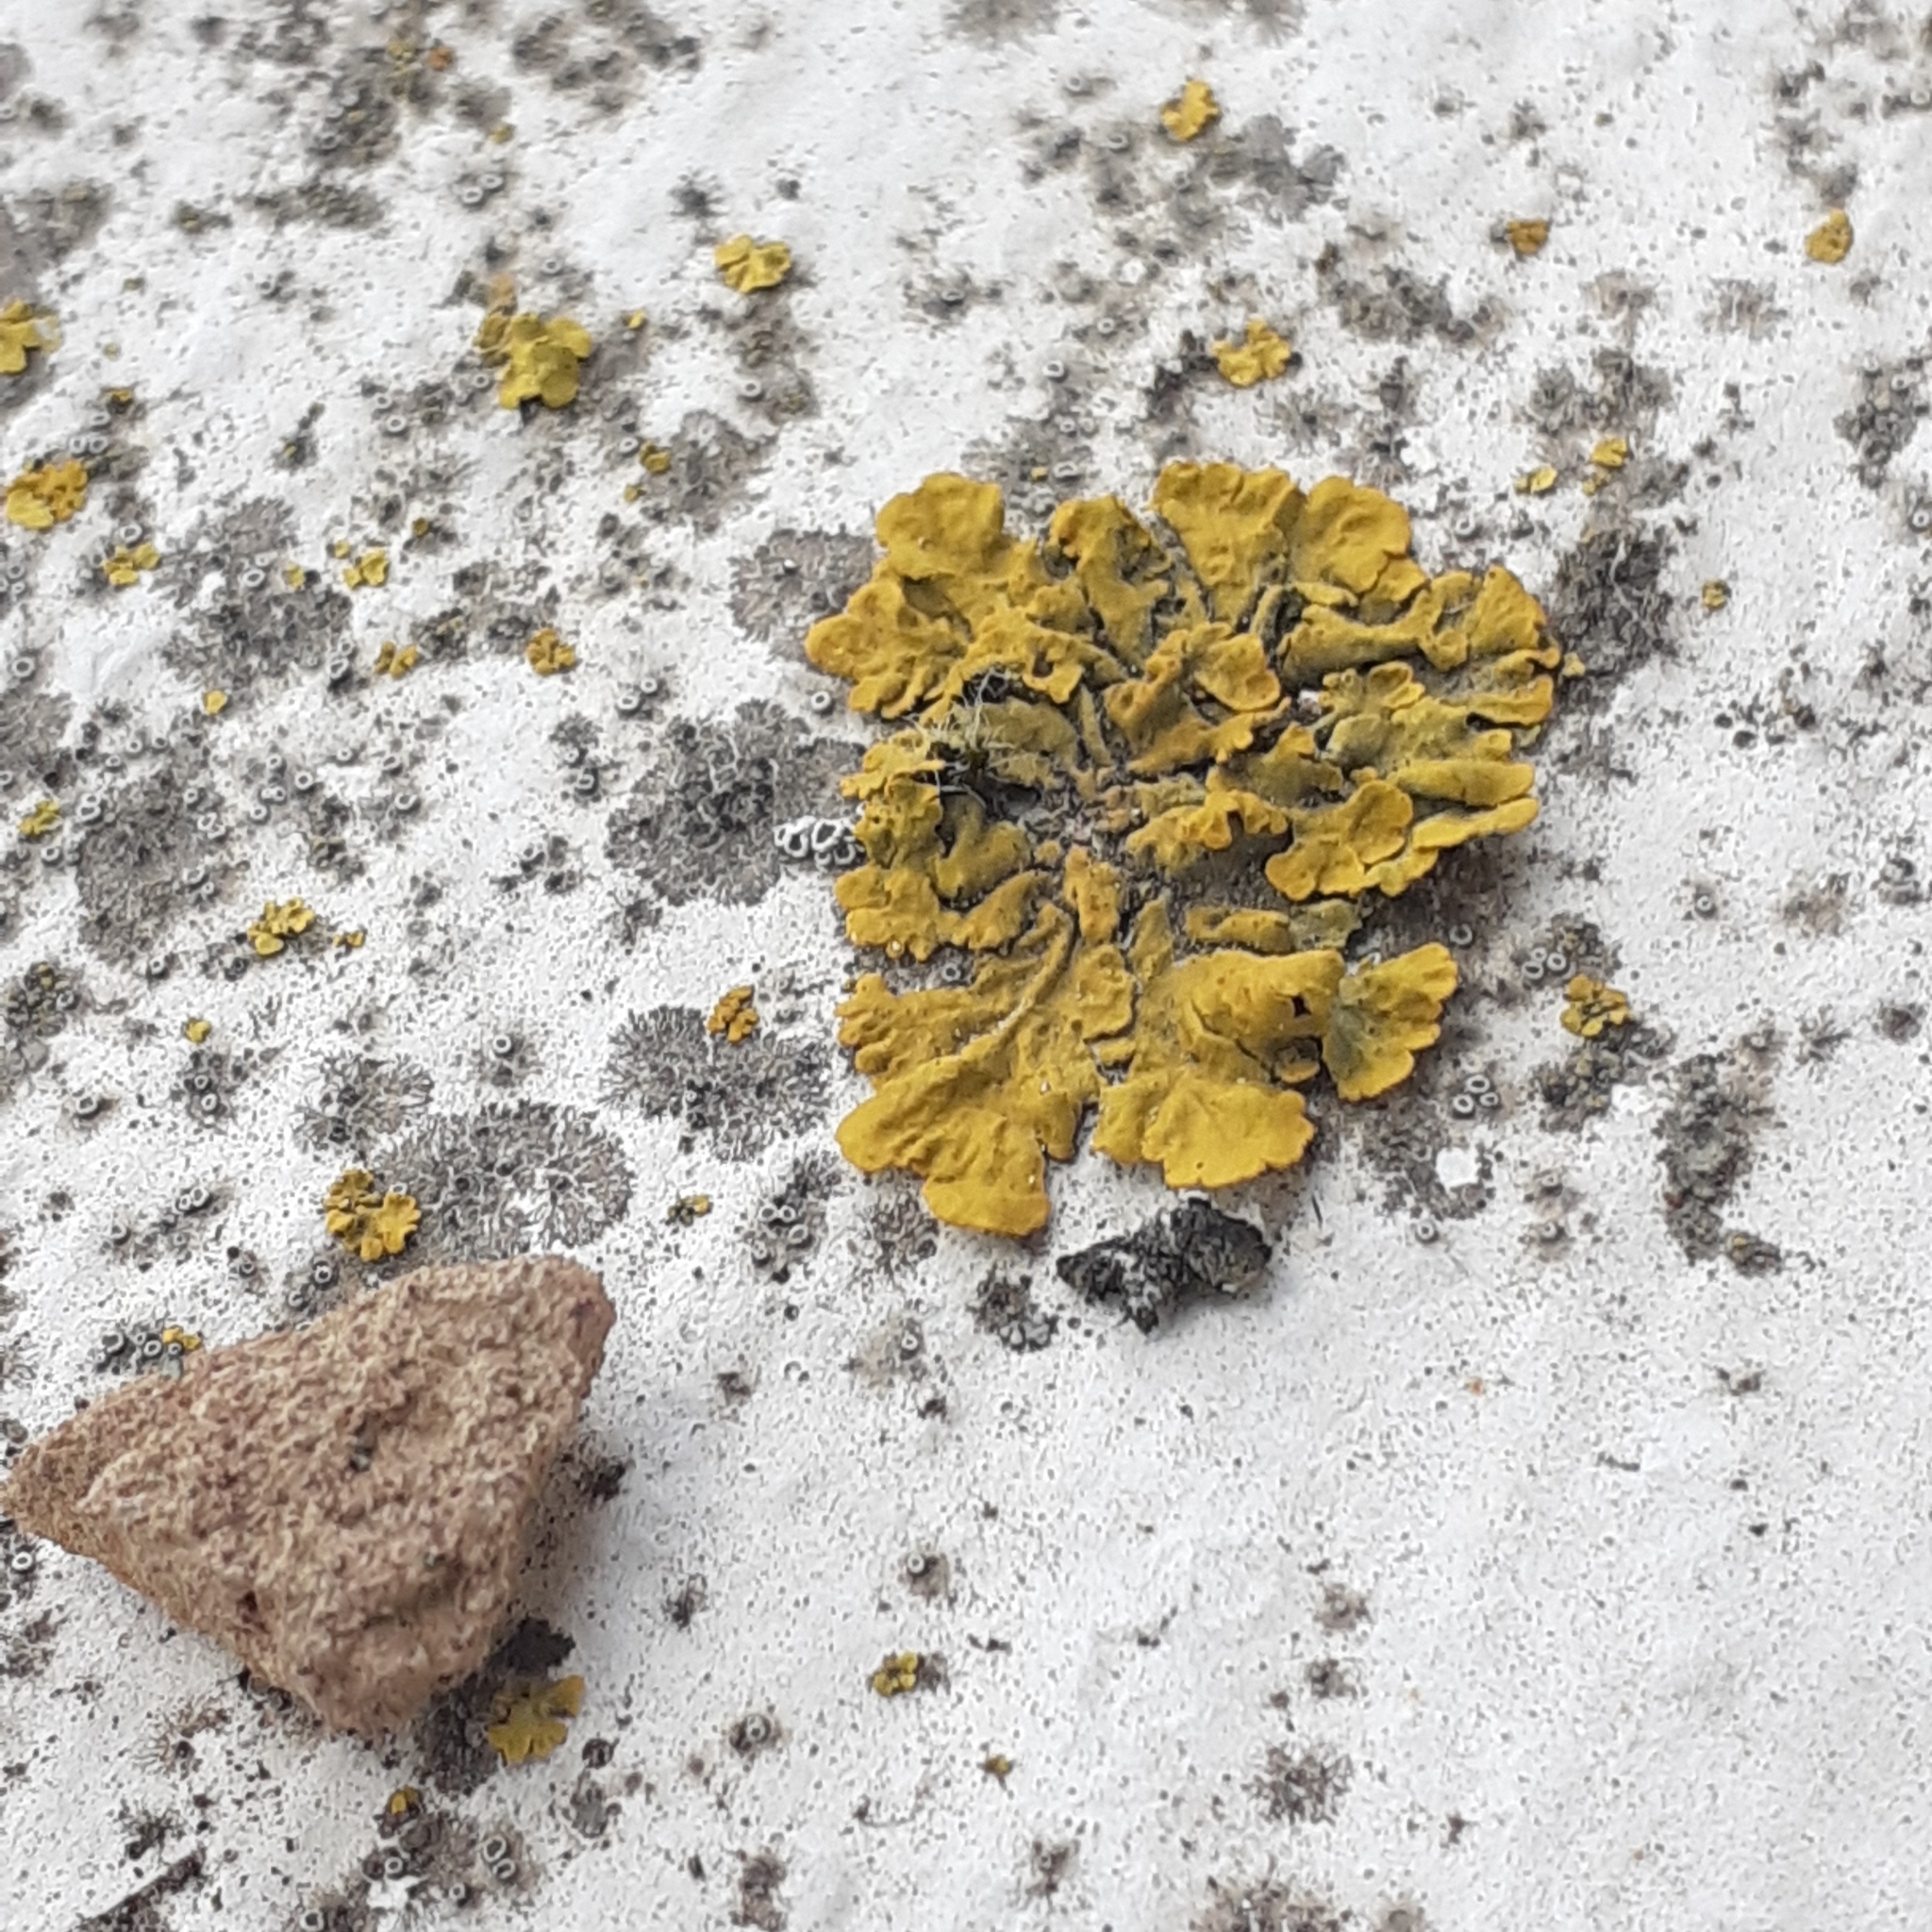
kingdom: Fungi
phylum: Ascomycota
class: Lecanoromycetes
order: Teloschistales
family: Teloschistaceae
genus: Xanthoria
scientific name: Xanthoria parietina
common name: Common orange lichen
